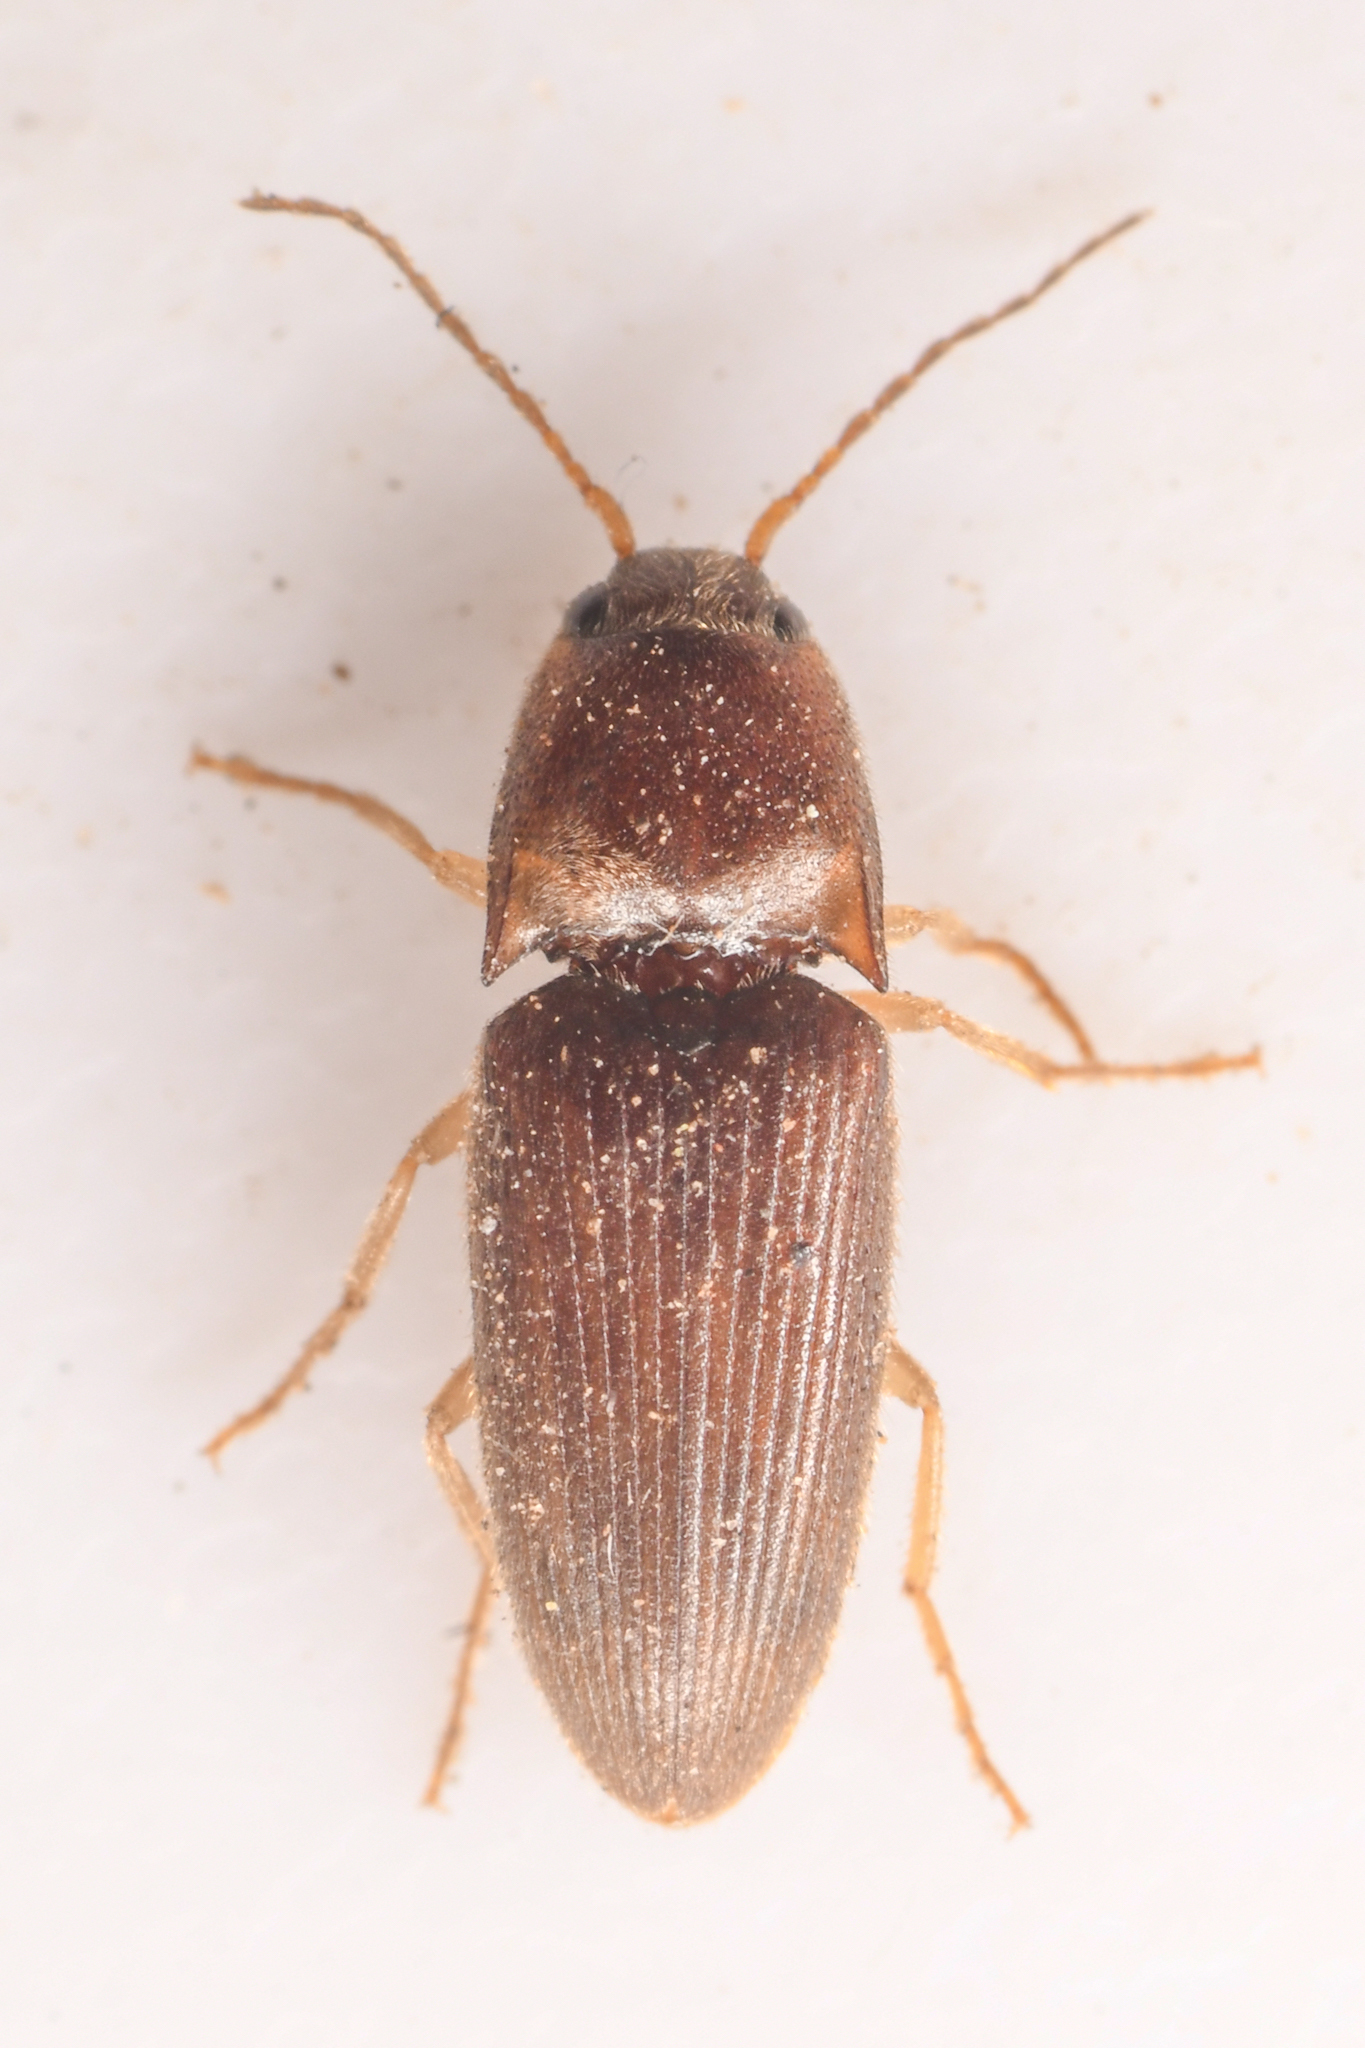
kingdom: Animalia
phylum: Arthropoda
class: Insecta
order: Coleoptera
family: Elateridae
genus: Monocrepidius
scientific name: Monocrepidius
